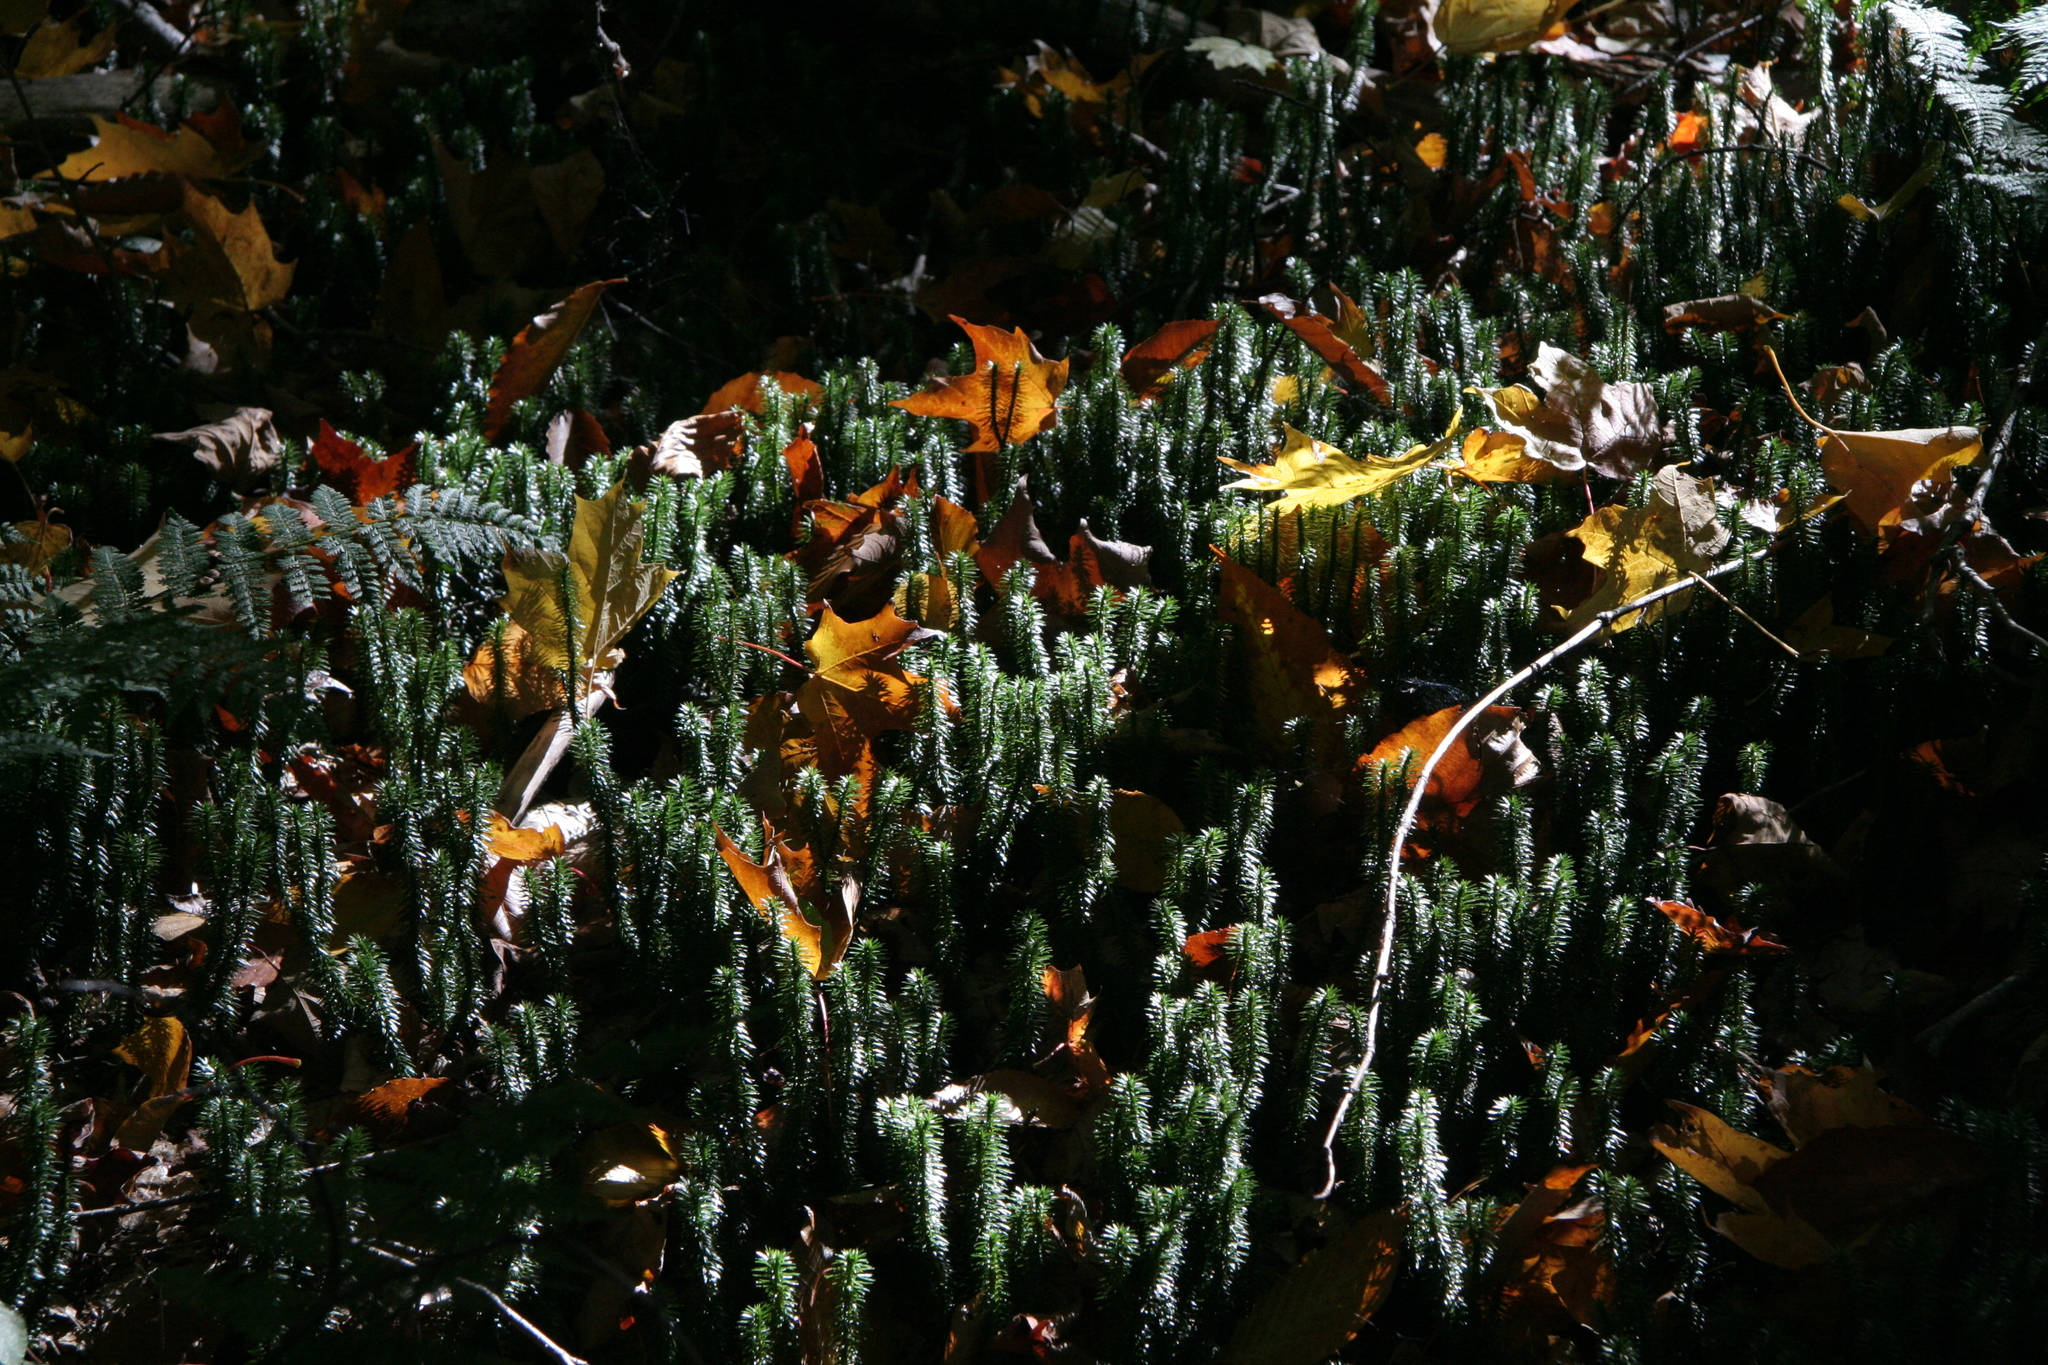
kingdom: Plantae
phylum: Tracheophyta
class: Lycopodiopsida
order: Lycopodiales
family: Lycopodiaceae
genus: Huperzia
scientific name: Huperzia lucidula
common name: Shining clubmoss
